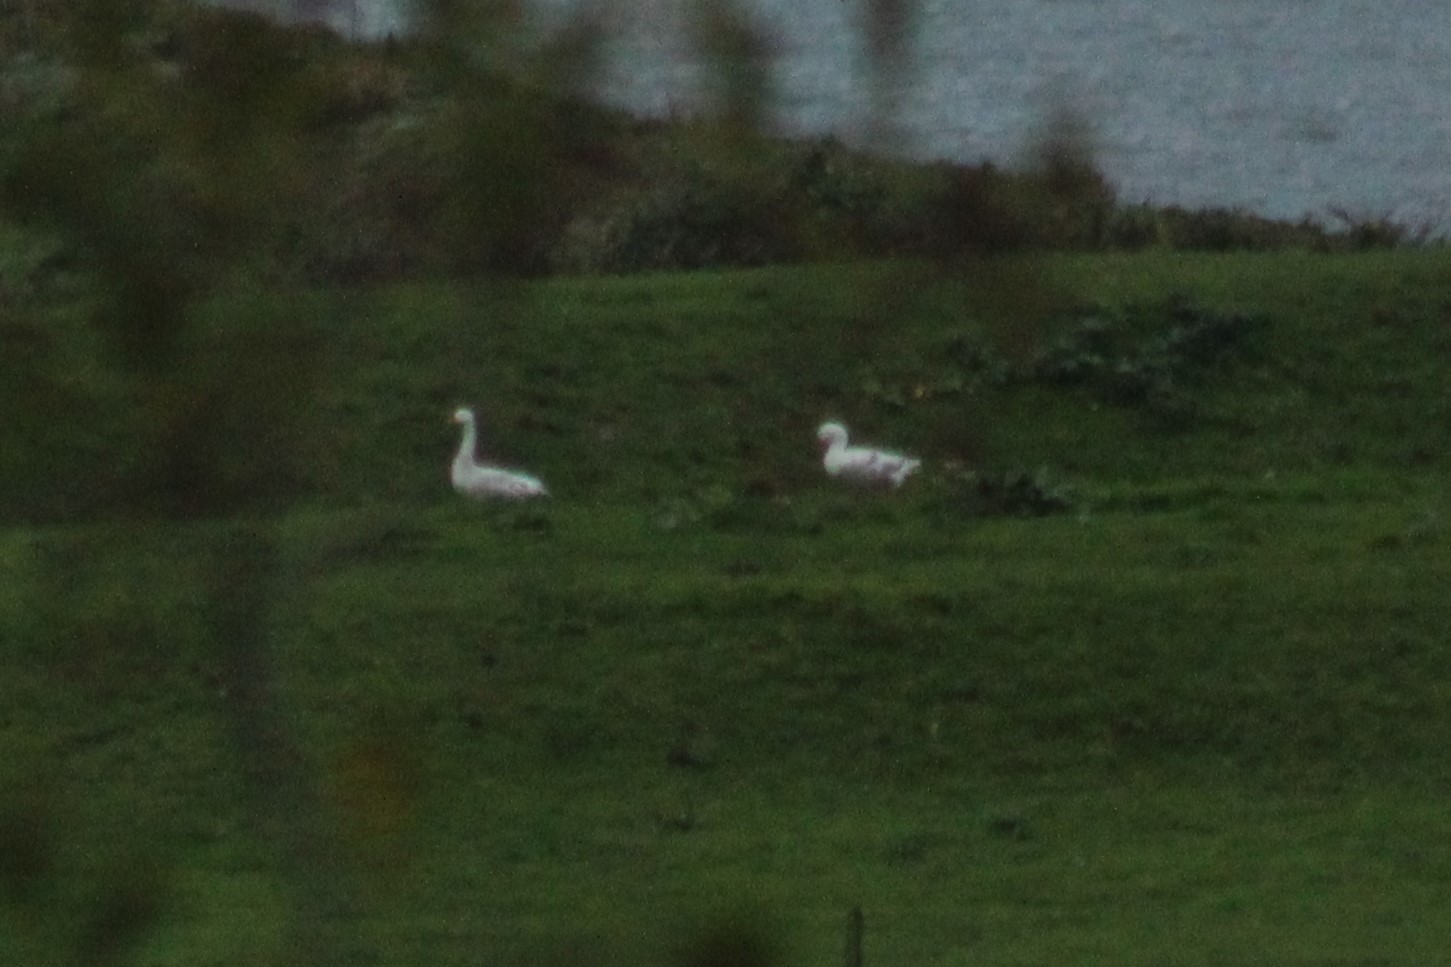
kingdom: Animalia
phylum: Chordata
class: Aves
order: Anseriformes
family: Anatidae
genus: Anser
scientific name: Anser anser
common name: Greylag goose
